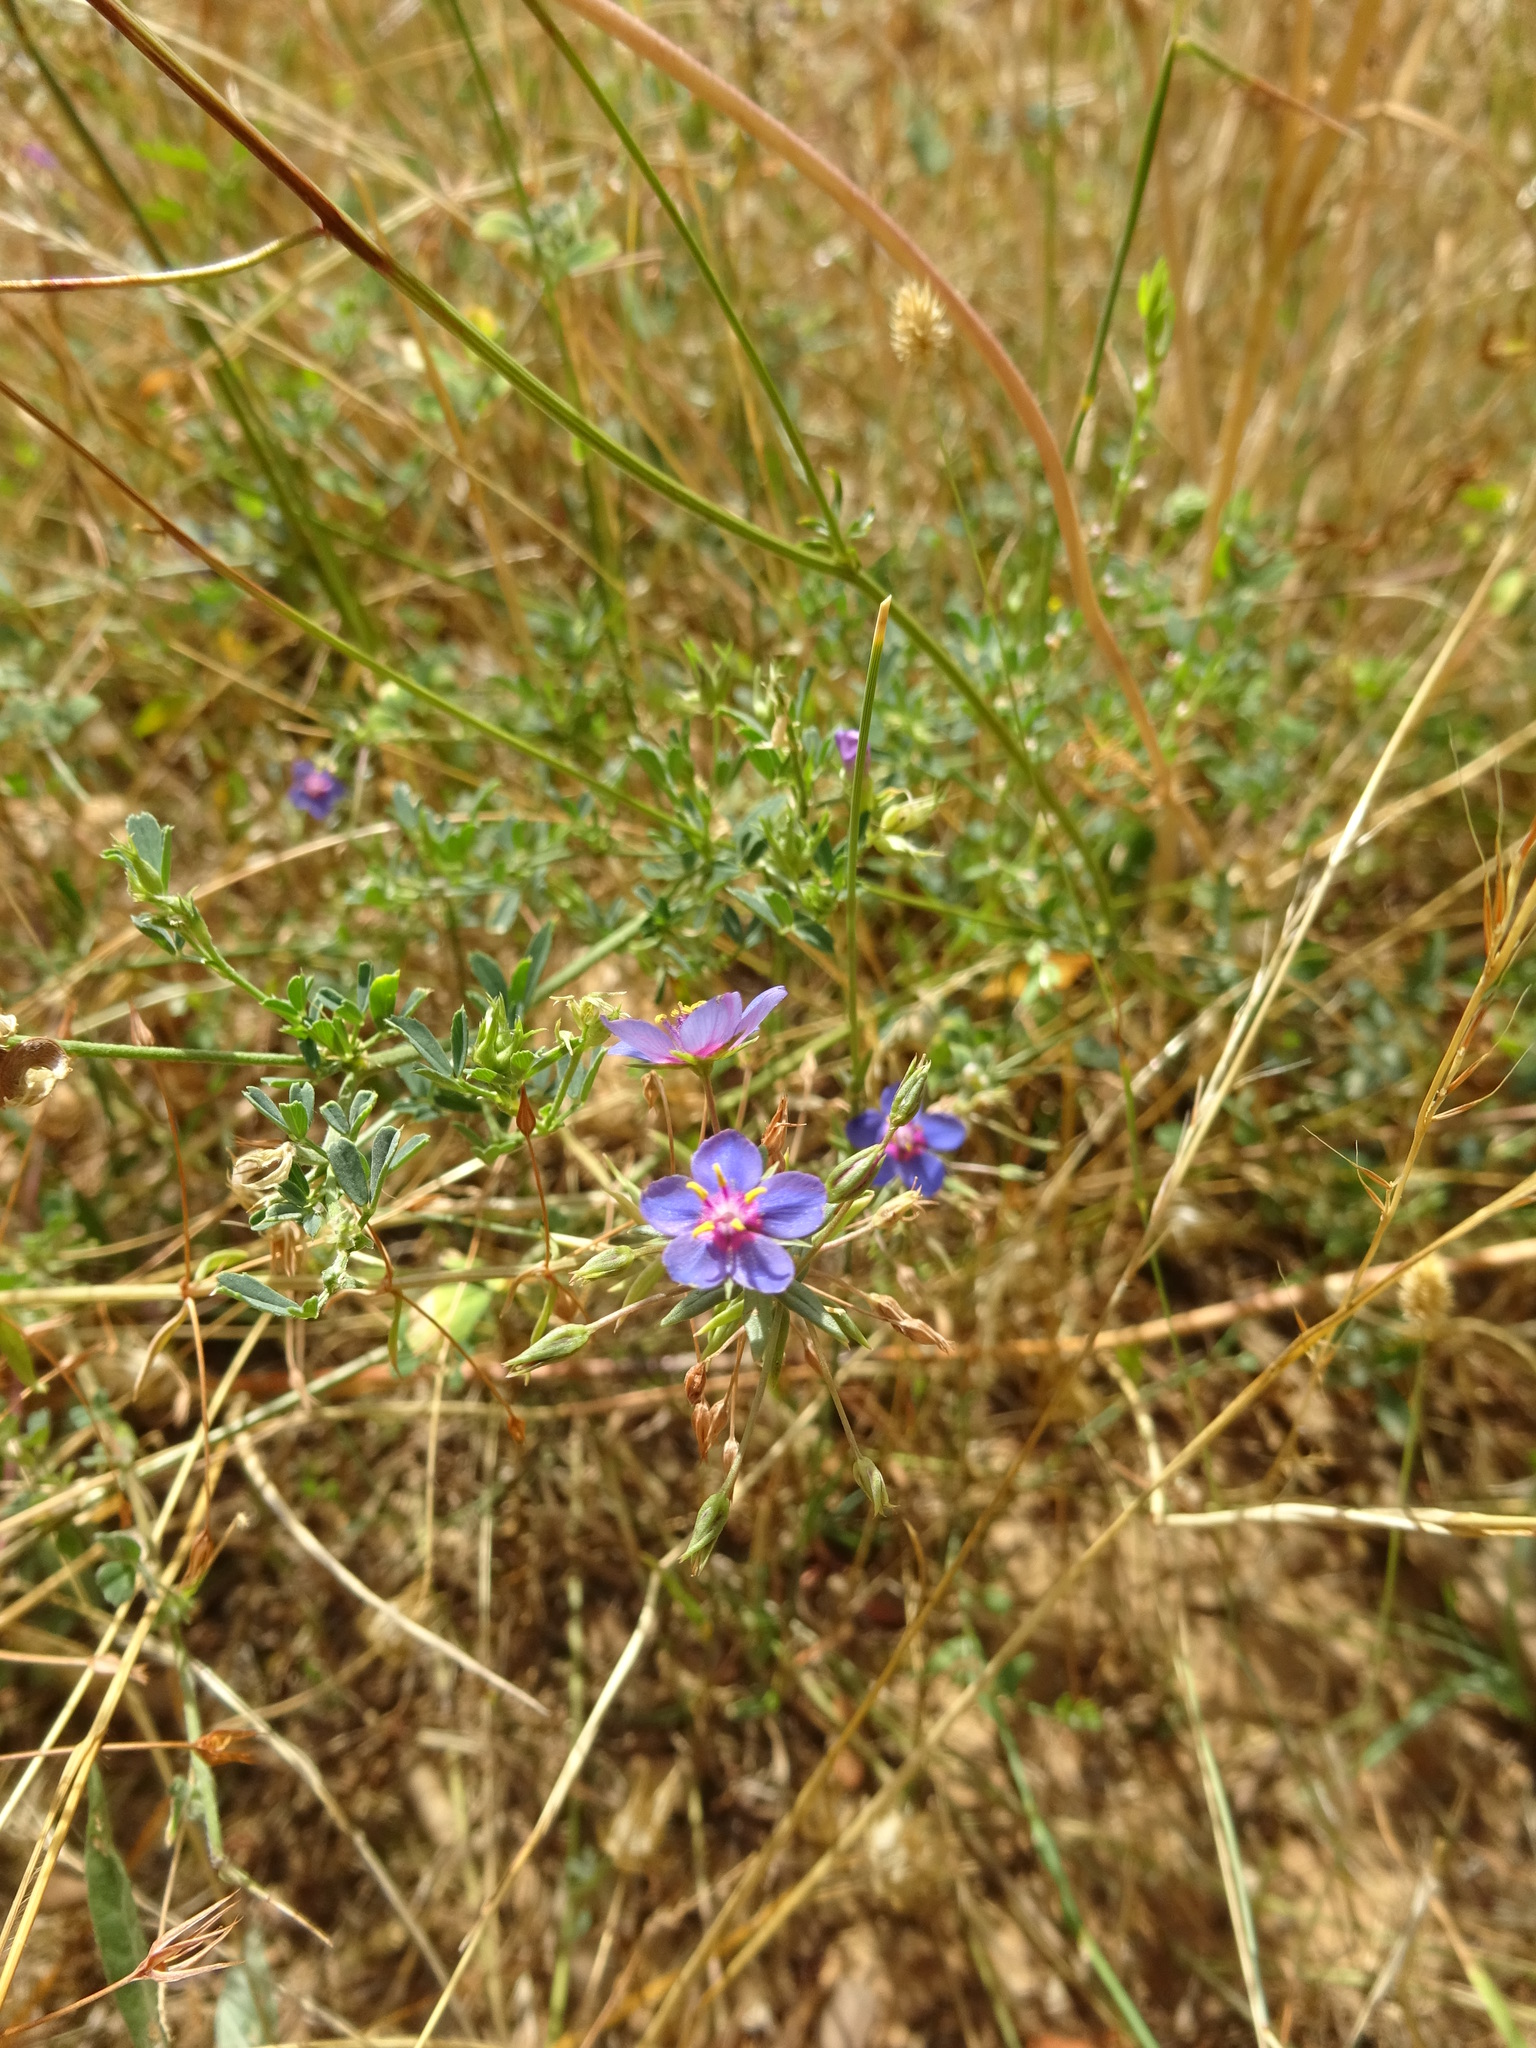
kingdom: Plantae
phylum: Tracheophyta
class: Magnoliopsida
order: Ericales
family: Primulaceae
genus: Lysimachia
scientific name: Lysimachia monelli
